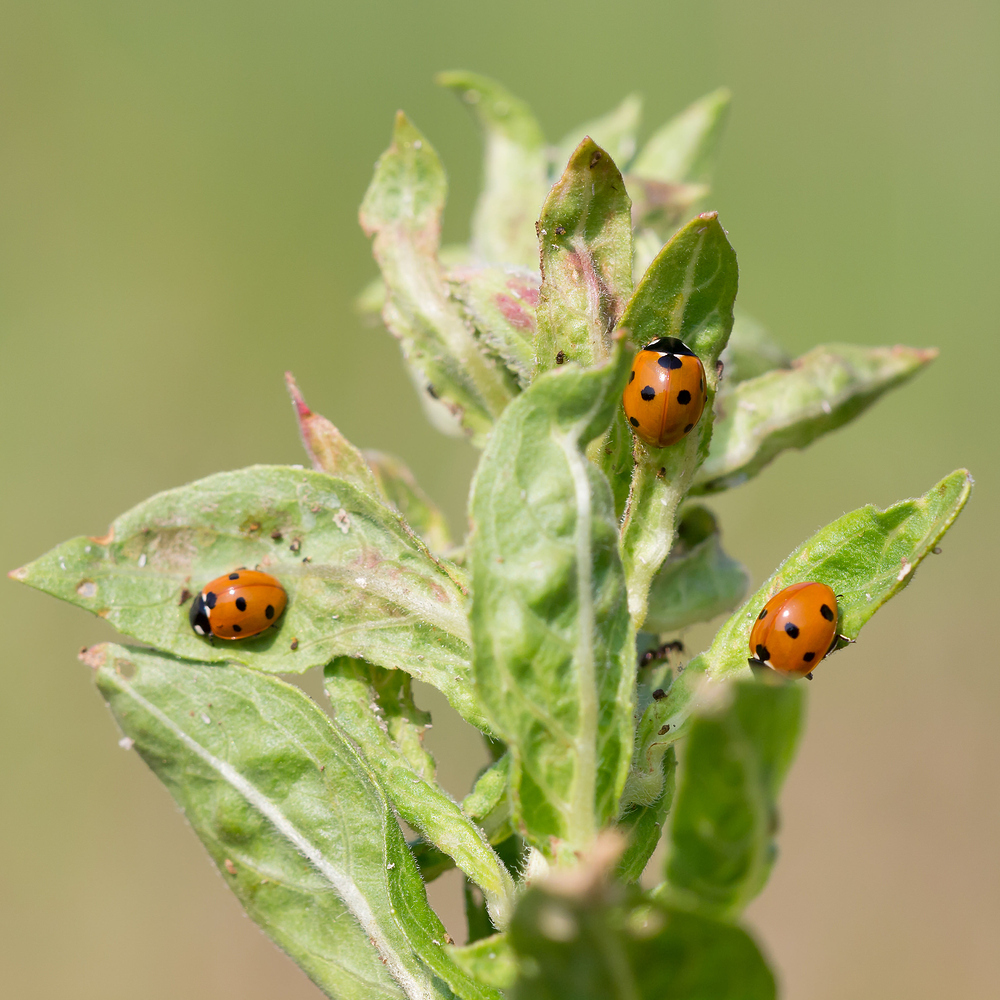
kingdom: Animalia
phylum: Arthropoda
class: Insecta
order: Coleoptera
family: Coccinellidae
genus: Coccinella
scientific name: Coccinella septempunctata
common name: Sevenspotted lady beetle
